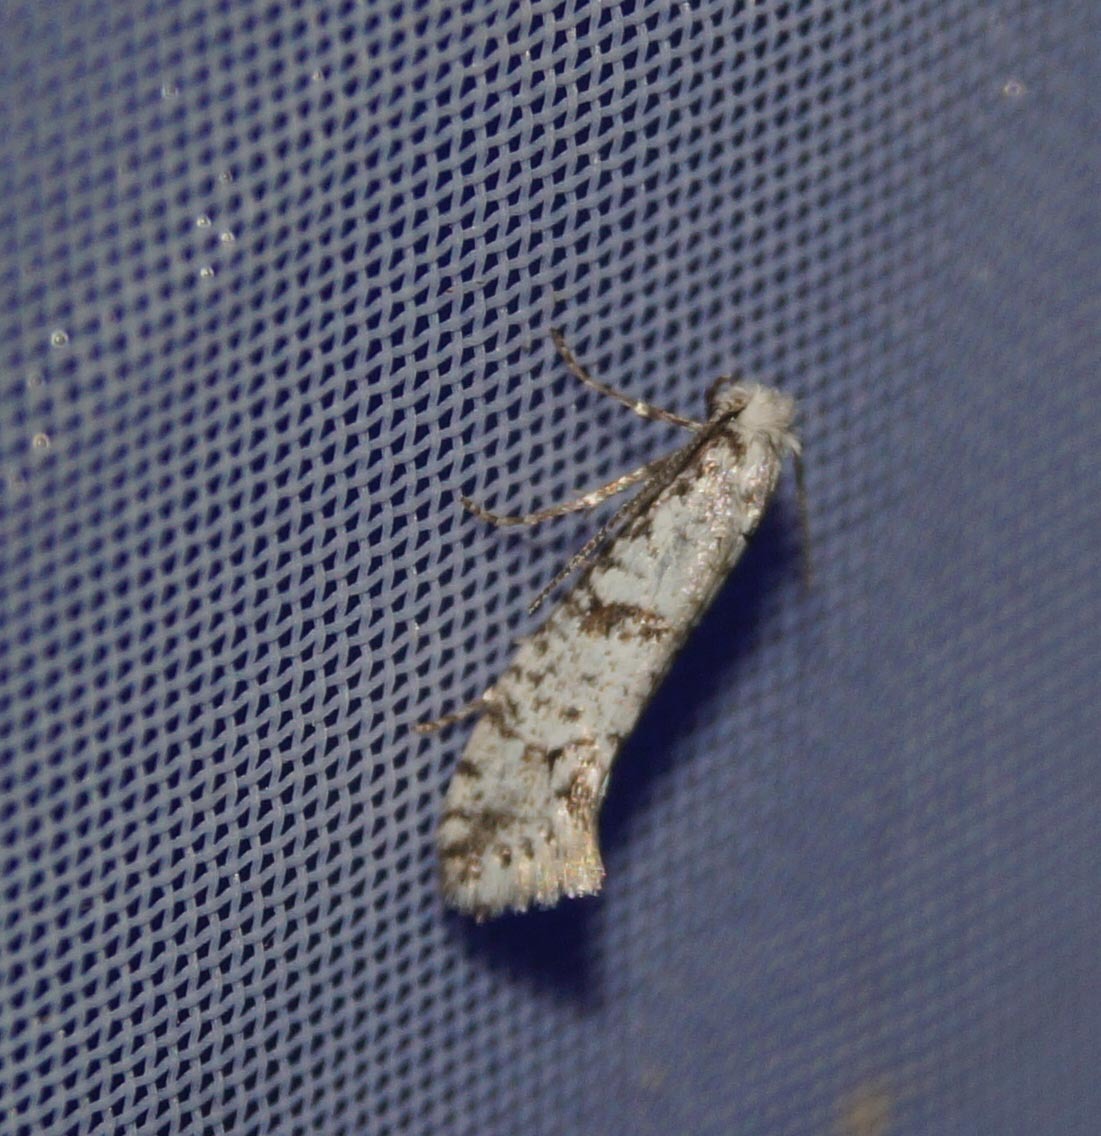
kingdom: Animalia
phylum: Arthropoda
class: Insecta
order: Lepidoptera
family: Yponomeutidae
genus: Scythropia
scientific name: Scythropia crataegella
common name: Hawthorn moth
